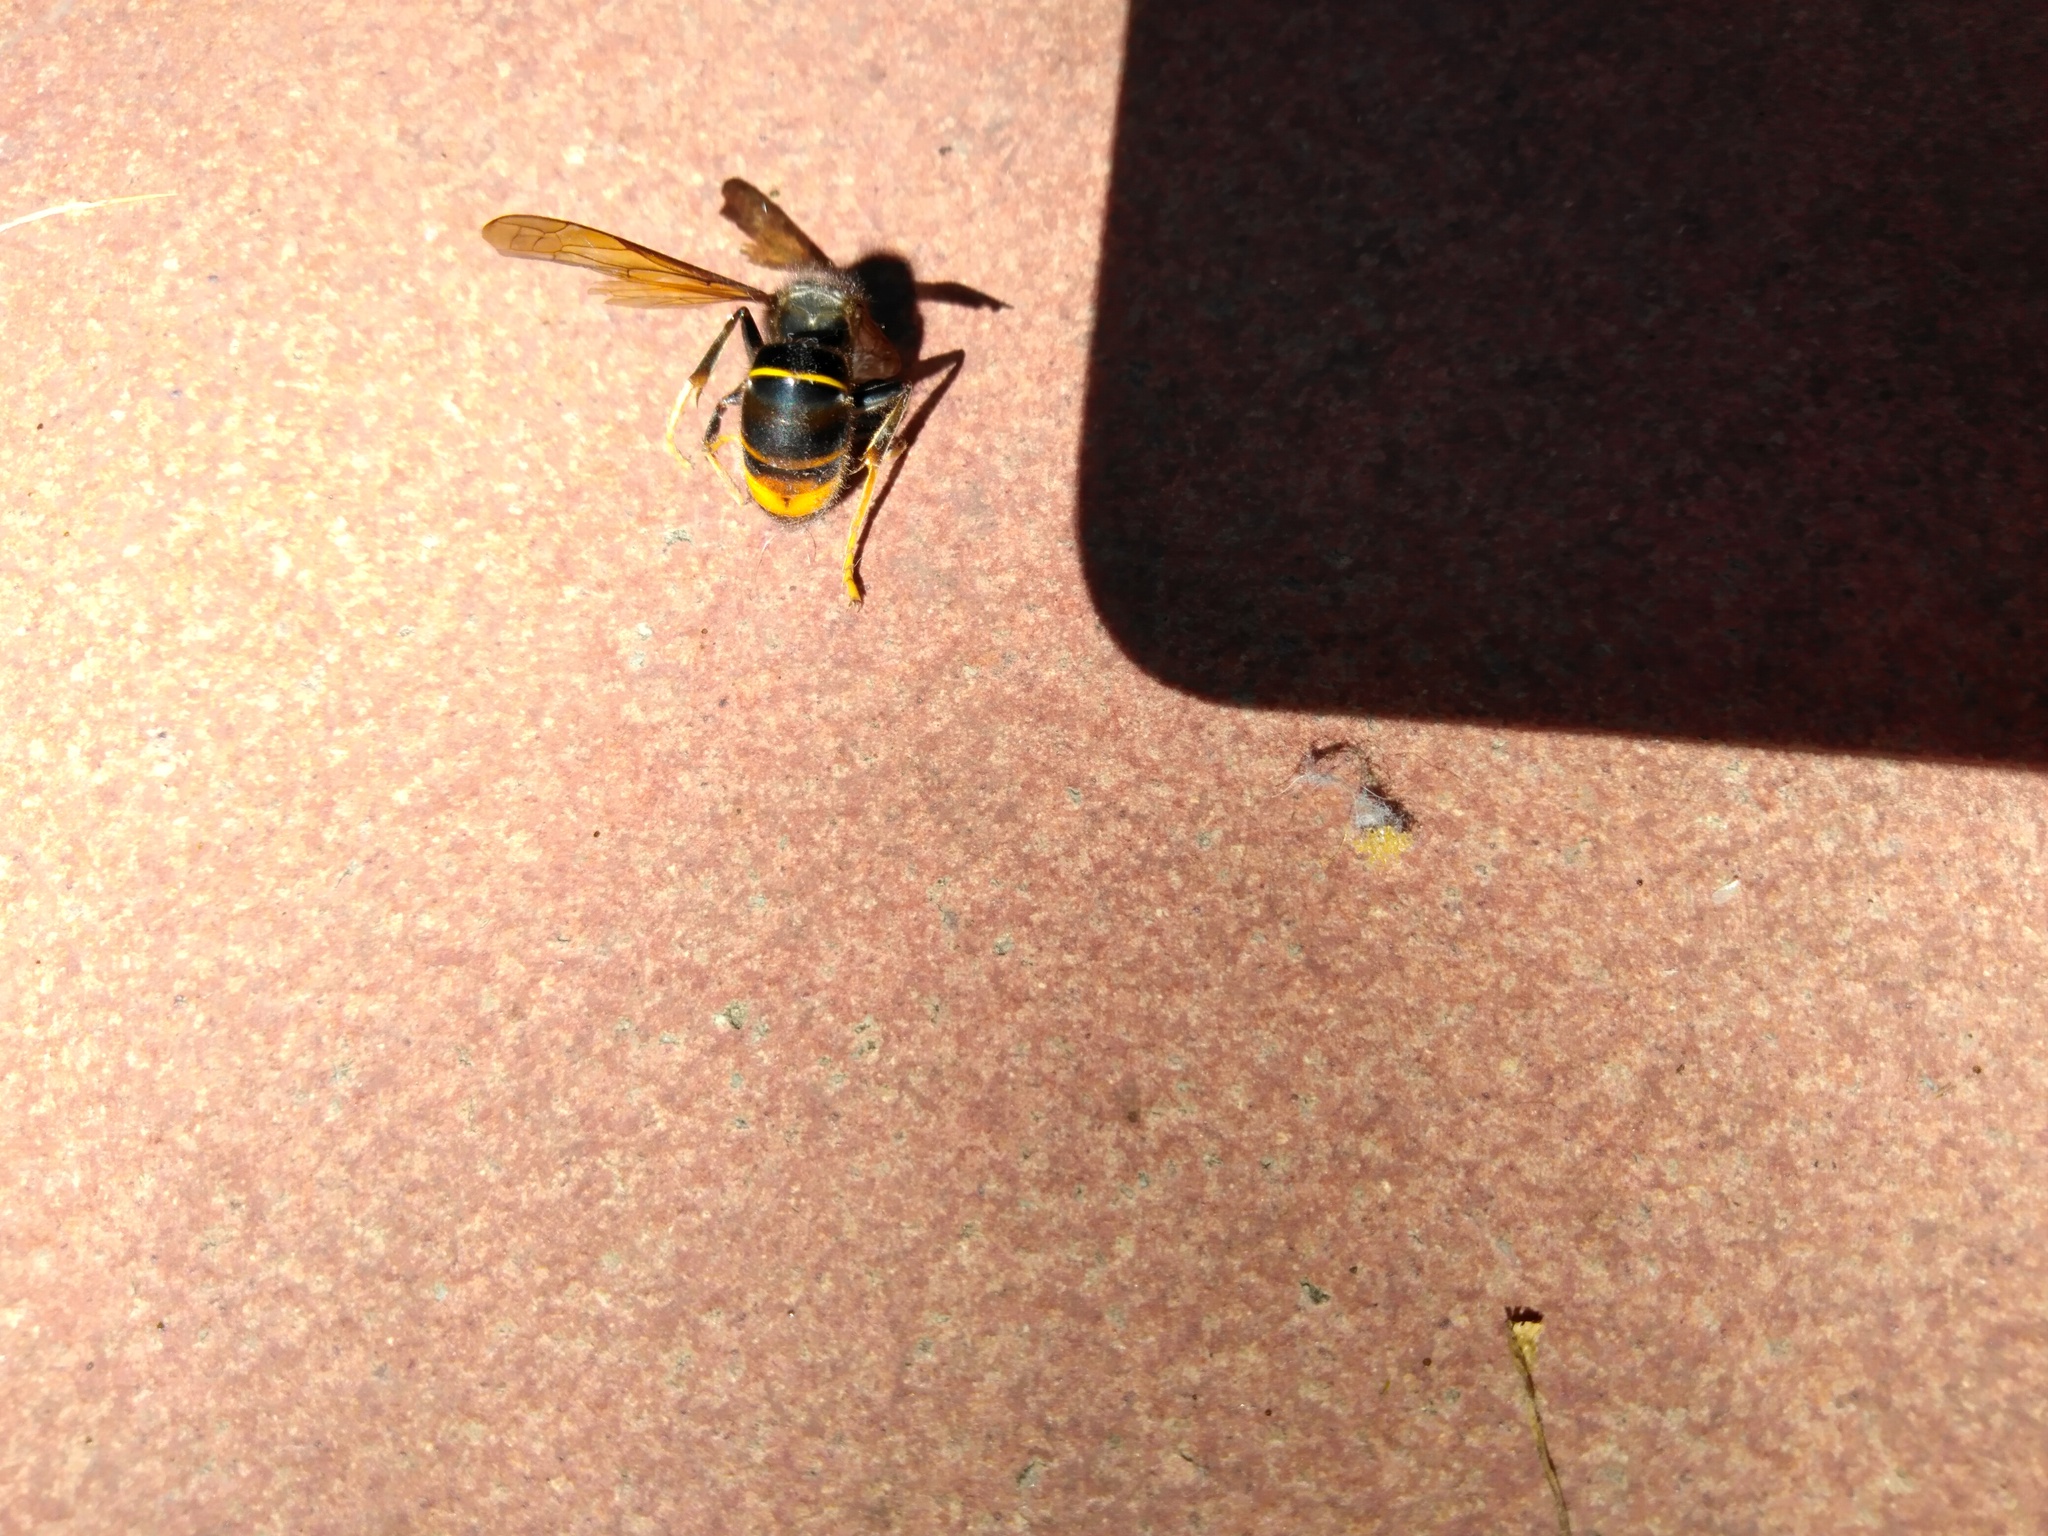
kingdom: Animalia
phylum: Arthropoda
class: Insecta
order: Hymenoptera
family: Vespidae
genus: Vespa
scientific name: Vespa velutina
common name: Asian hornet
